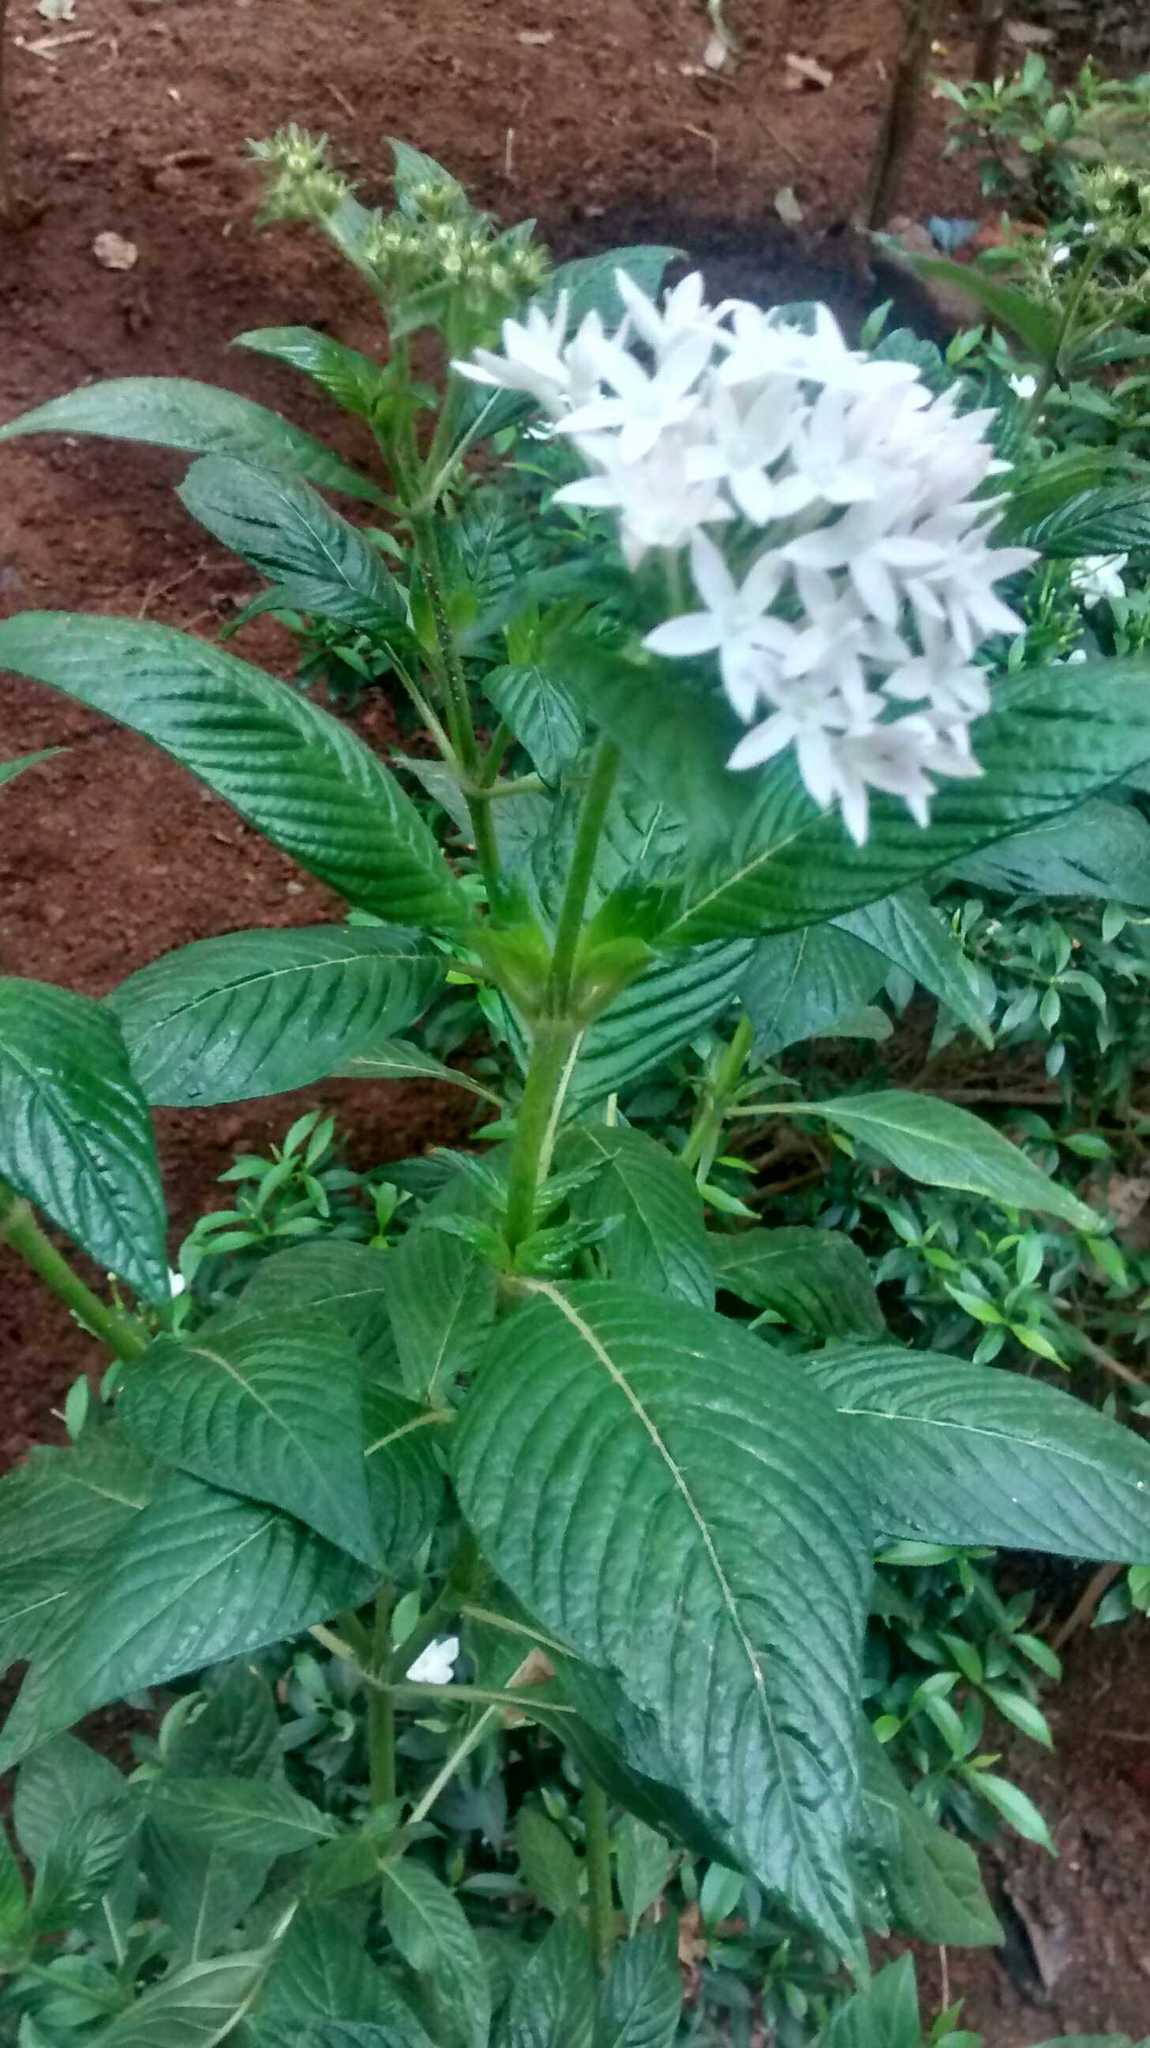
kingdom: Plantae
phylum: Tracheophyta
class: Magnoliopsida
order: Gentianales
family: Rubiaceae
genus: Pentas
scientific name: Pentas lanceolata
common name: Egyptian starcluster
